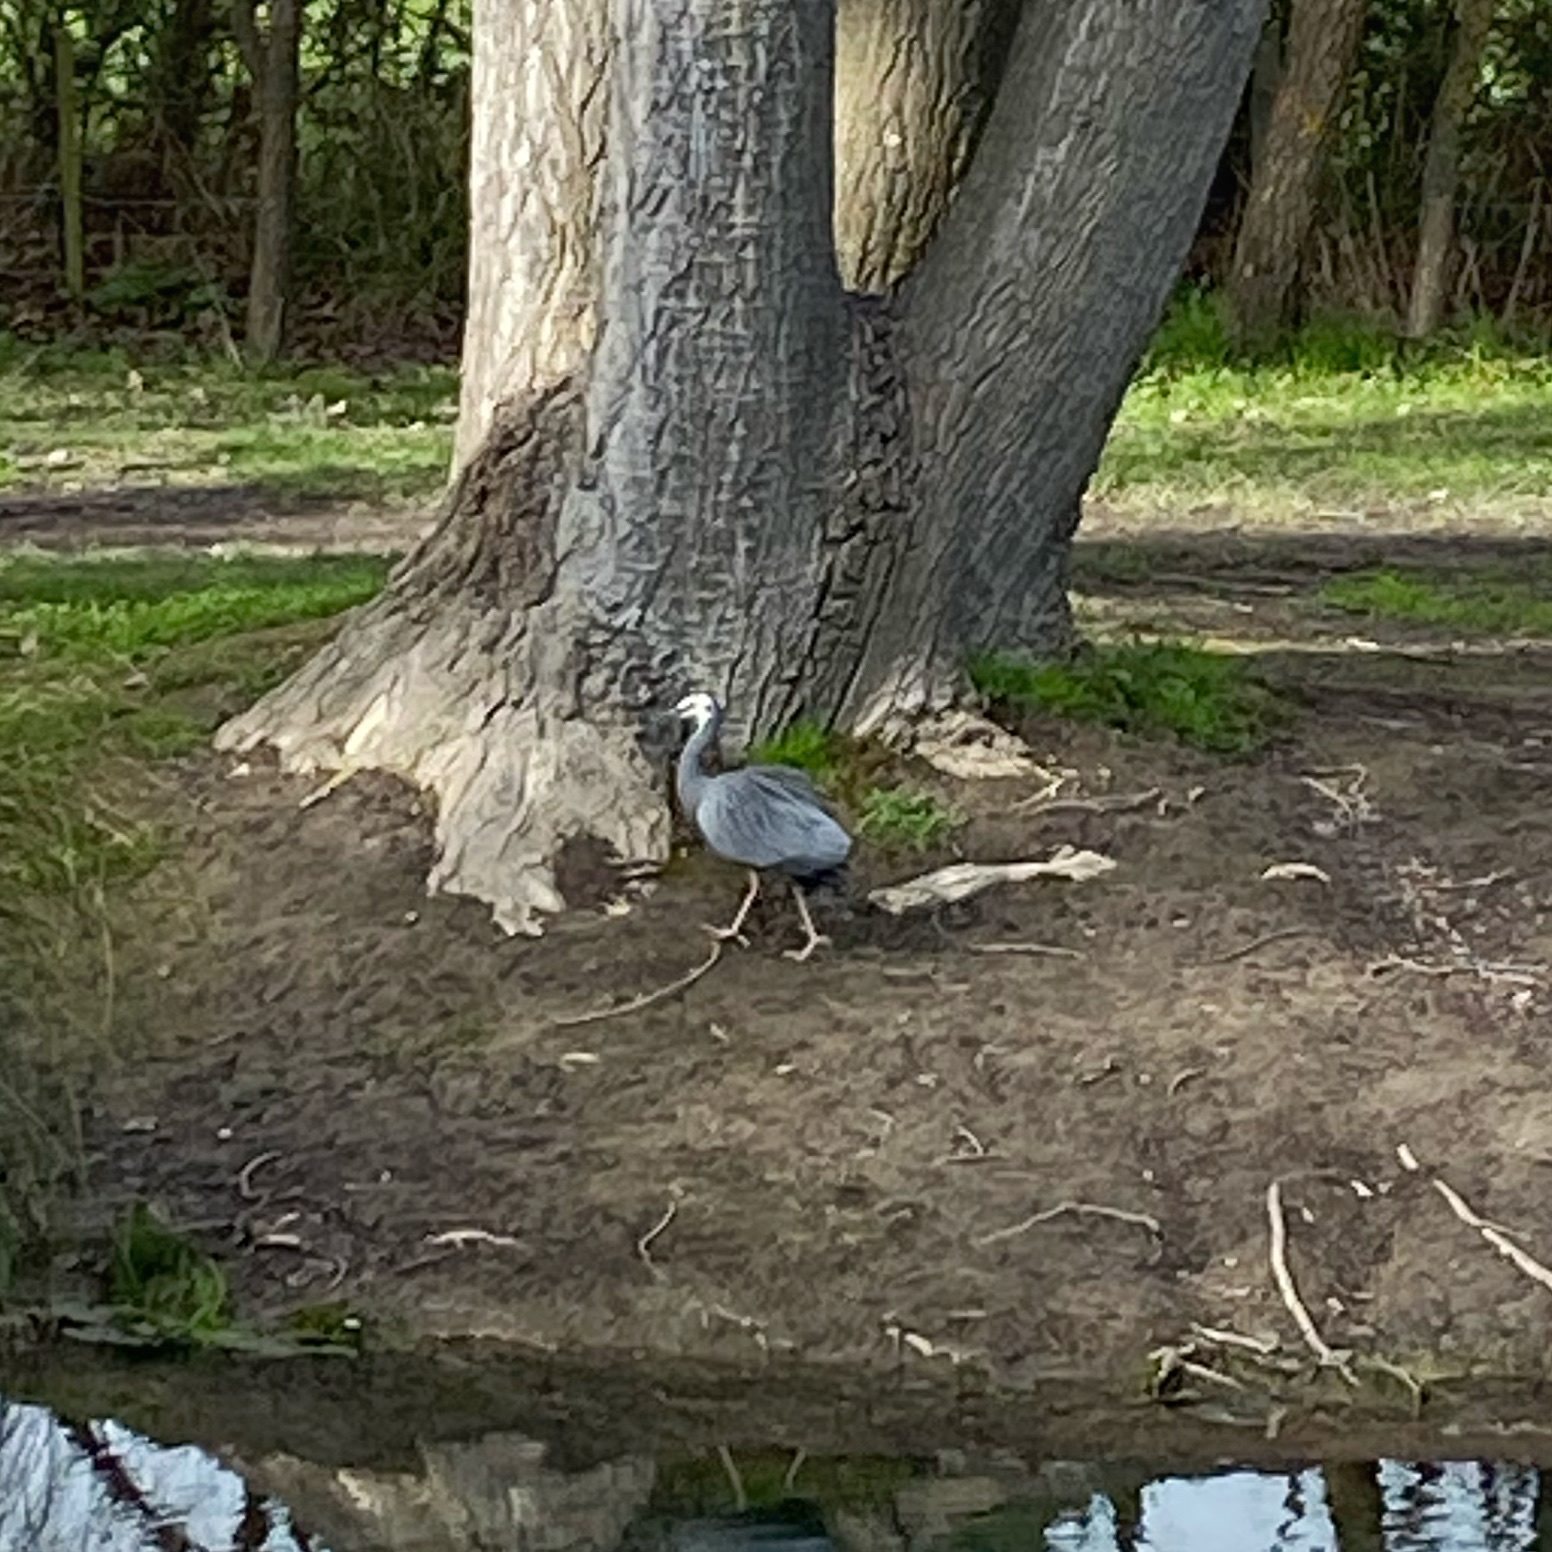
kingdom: Animalia
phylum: Chordata
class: Aves
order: Pelecaniformes
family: Ardeidae
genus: Egretta
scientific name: Egretta novaehollandiae
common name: White-faced heron
